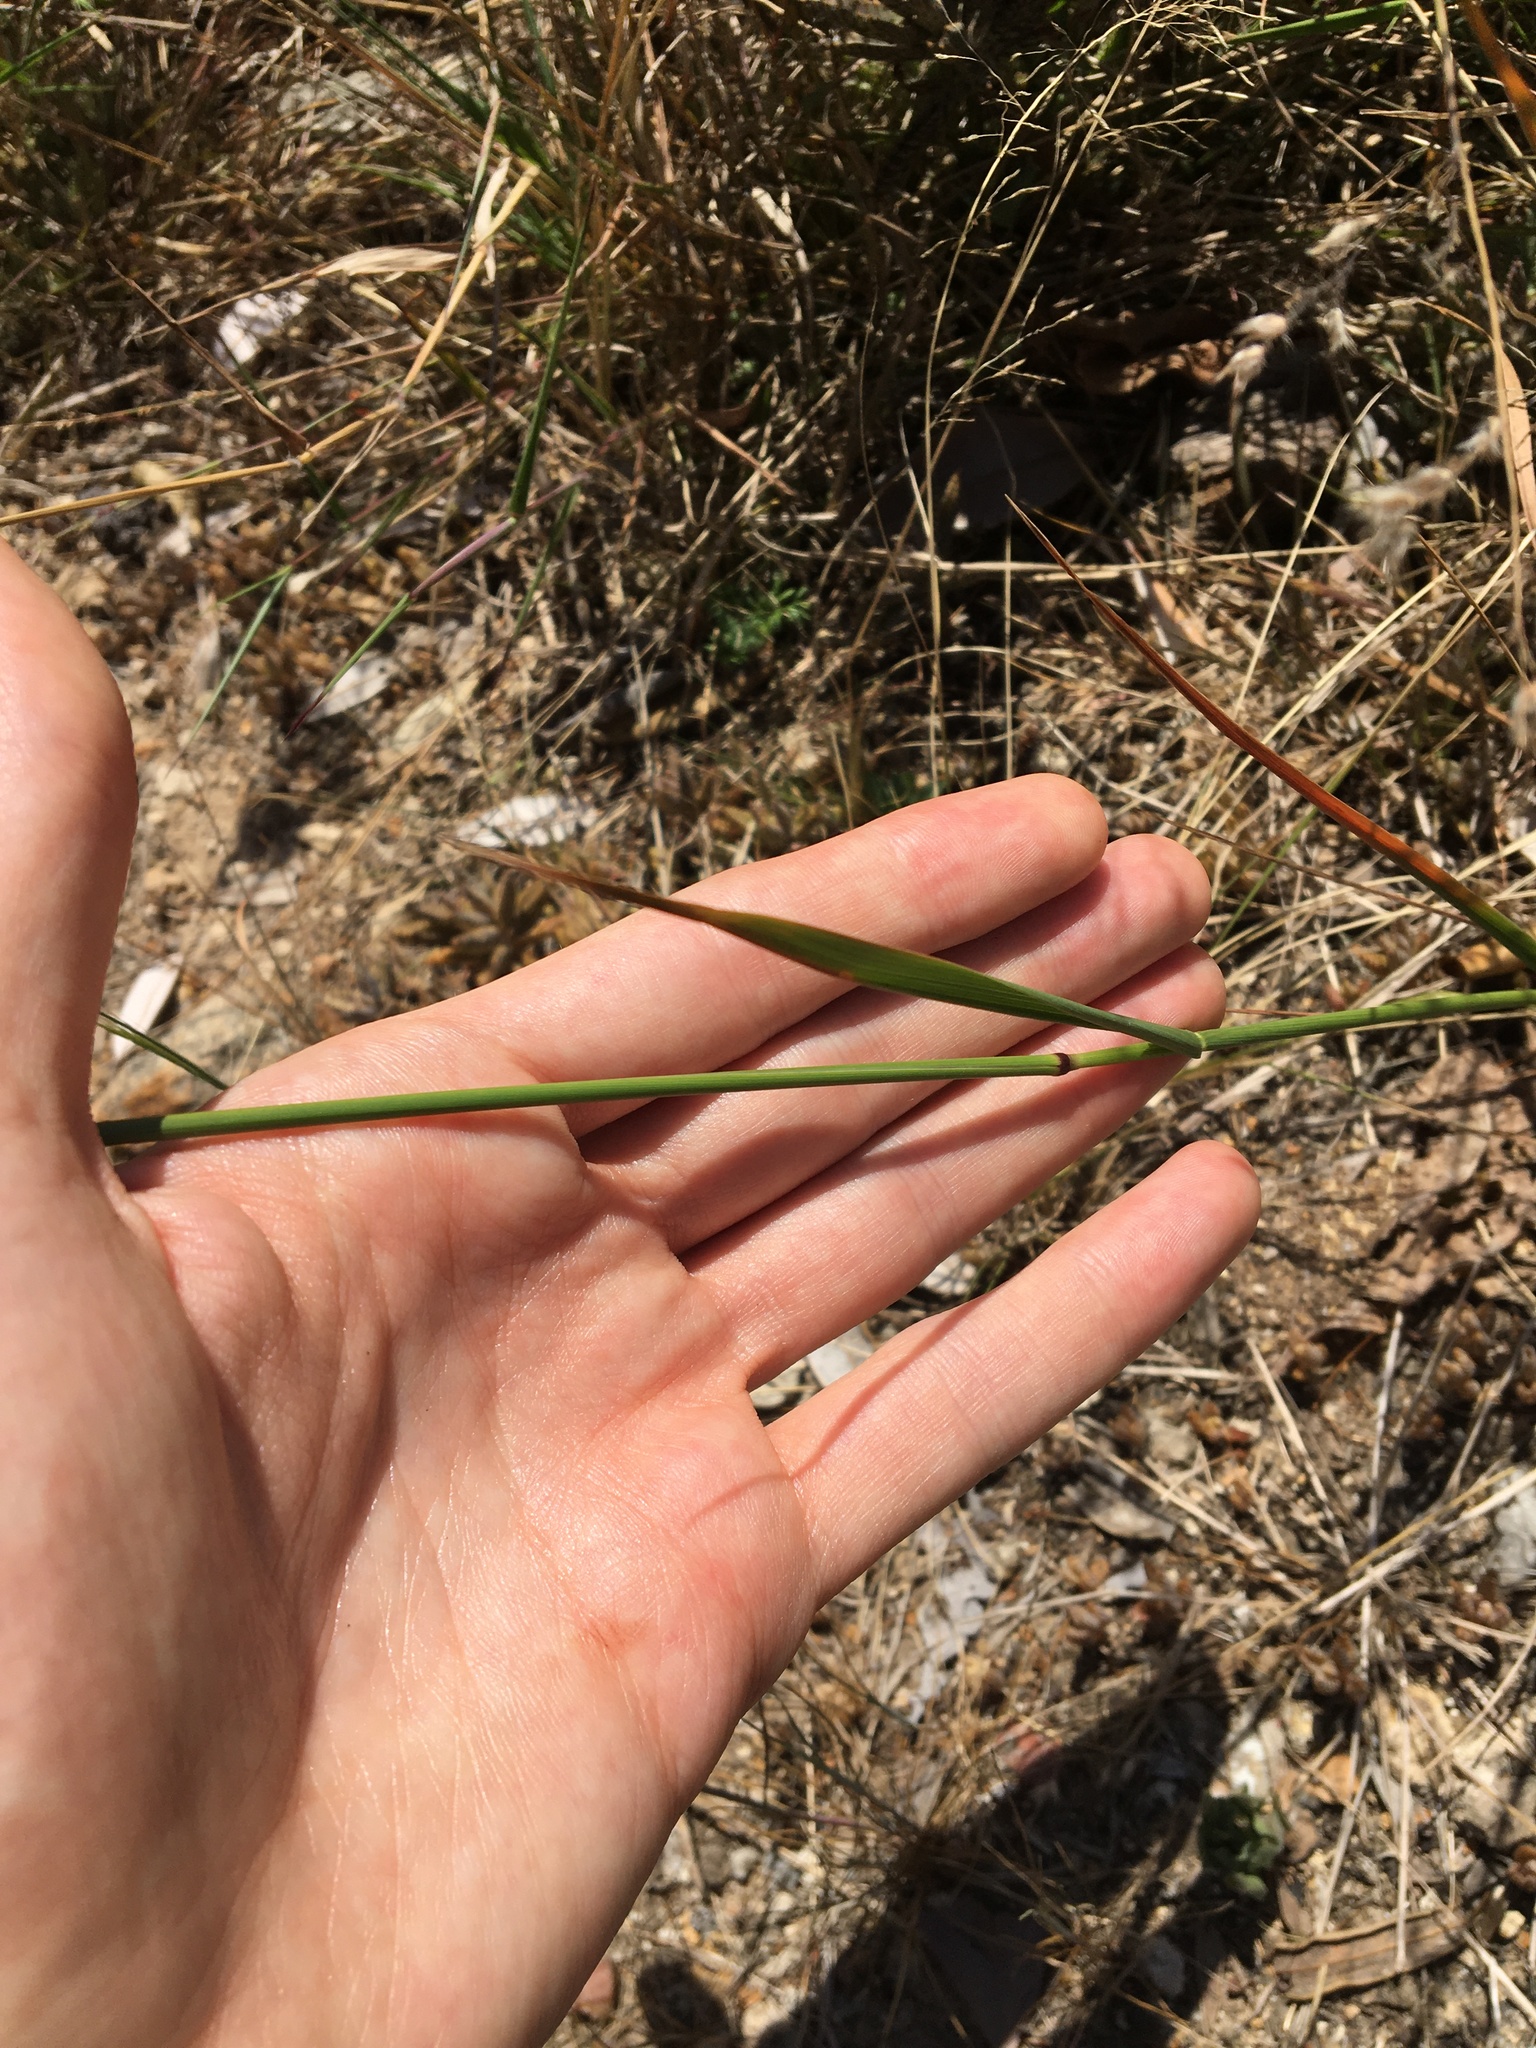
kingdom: Plantae
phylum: Tracheophyta
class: Liliopsida
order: Poales
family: Poaceae
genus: Dichelachne
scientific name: Dichelachne crinita
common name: Clovenfoot plumegrass
